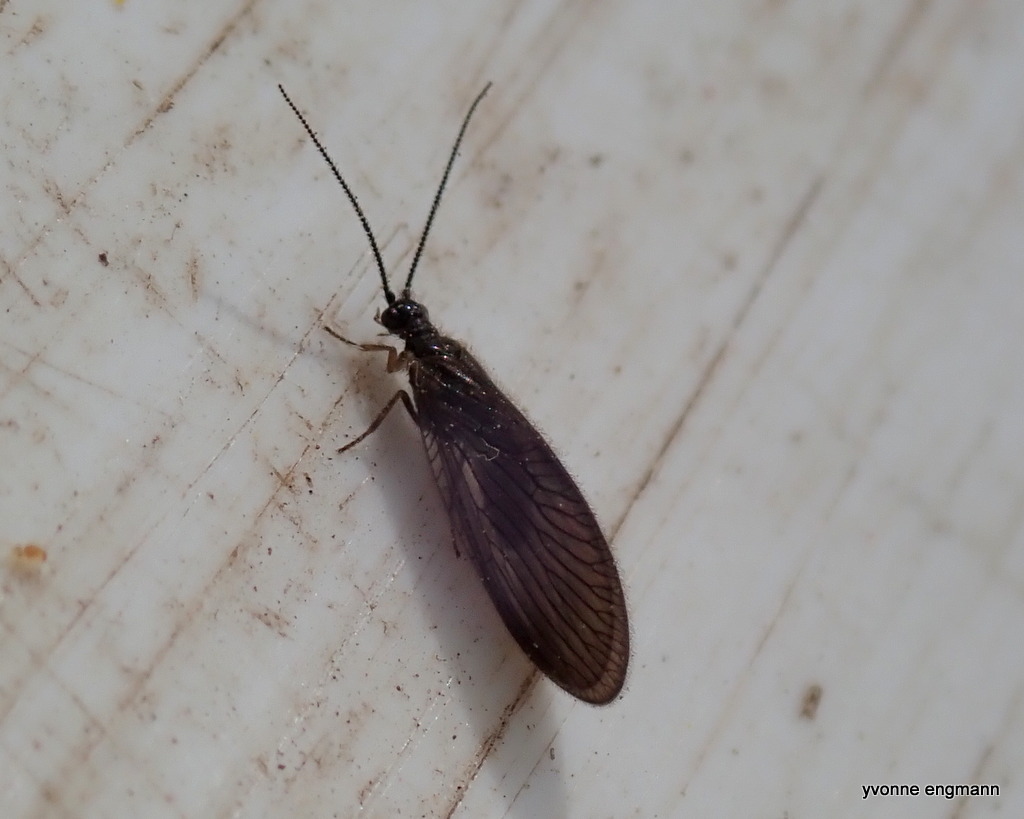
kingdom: Animalia
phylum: Arthropoda
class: Insecta
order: Neuroptera
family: Sisyridae
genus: Sisyra
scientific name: Sisyra nigra
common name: Black spongillafly
